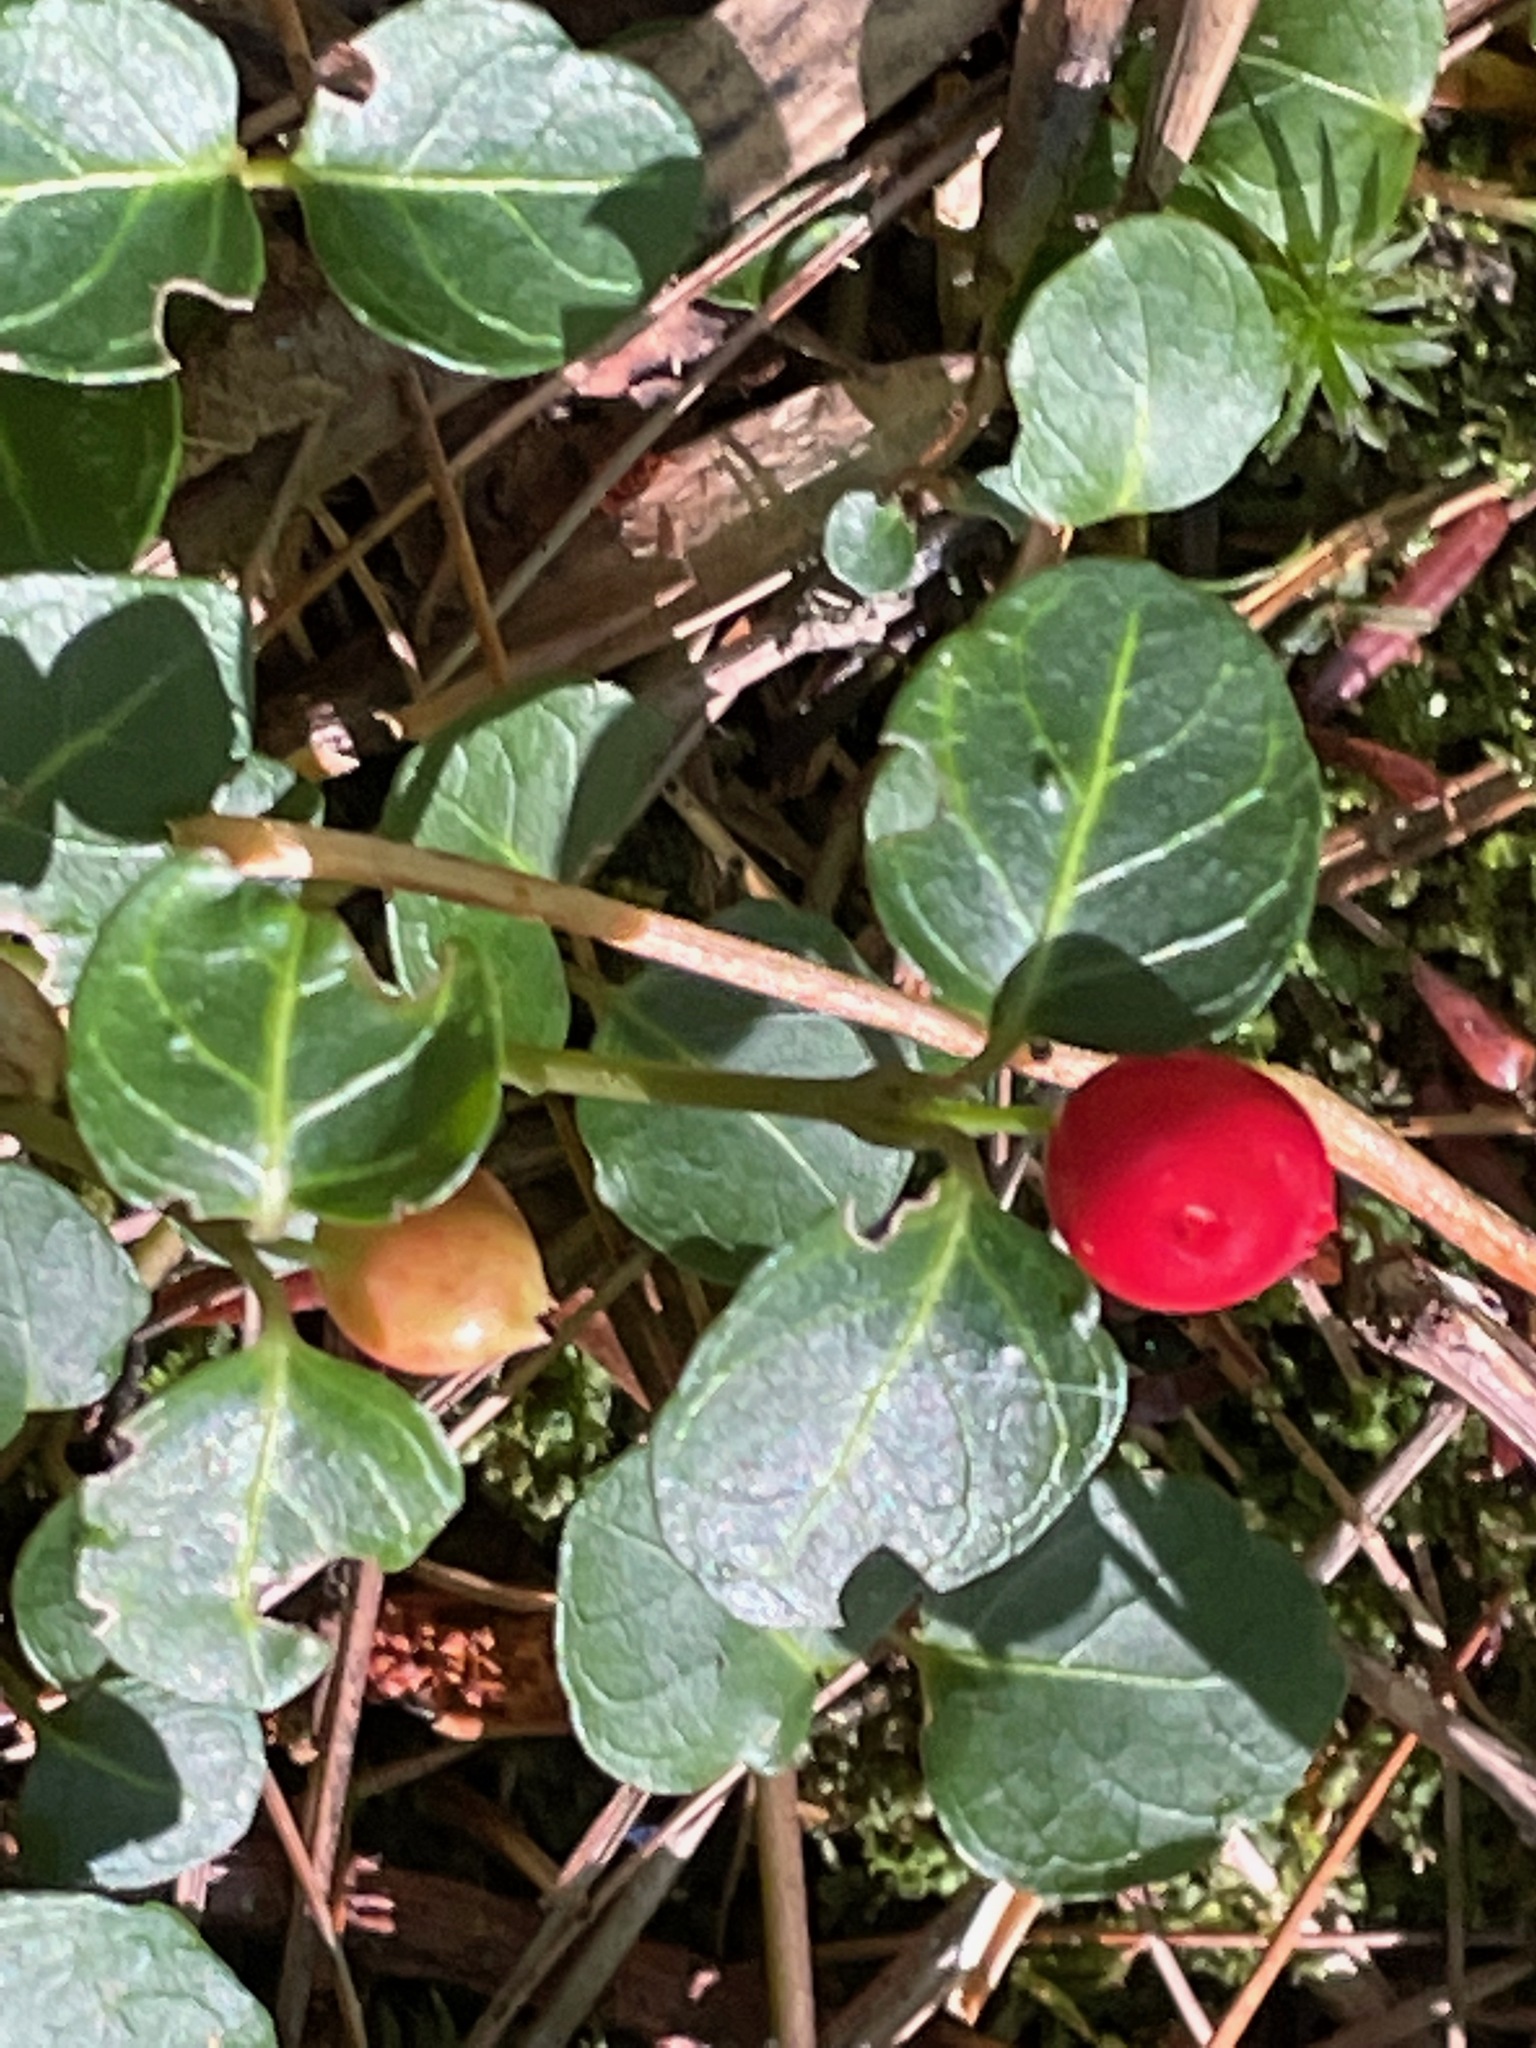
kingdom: Plantae
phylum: Tracheophyta
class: Magnoliopsida
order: Gentianales
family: Rubiaceae
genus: Mitchella
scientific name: Mitchella repens
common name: Partridge-berry
